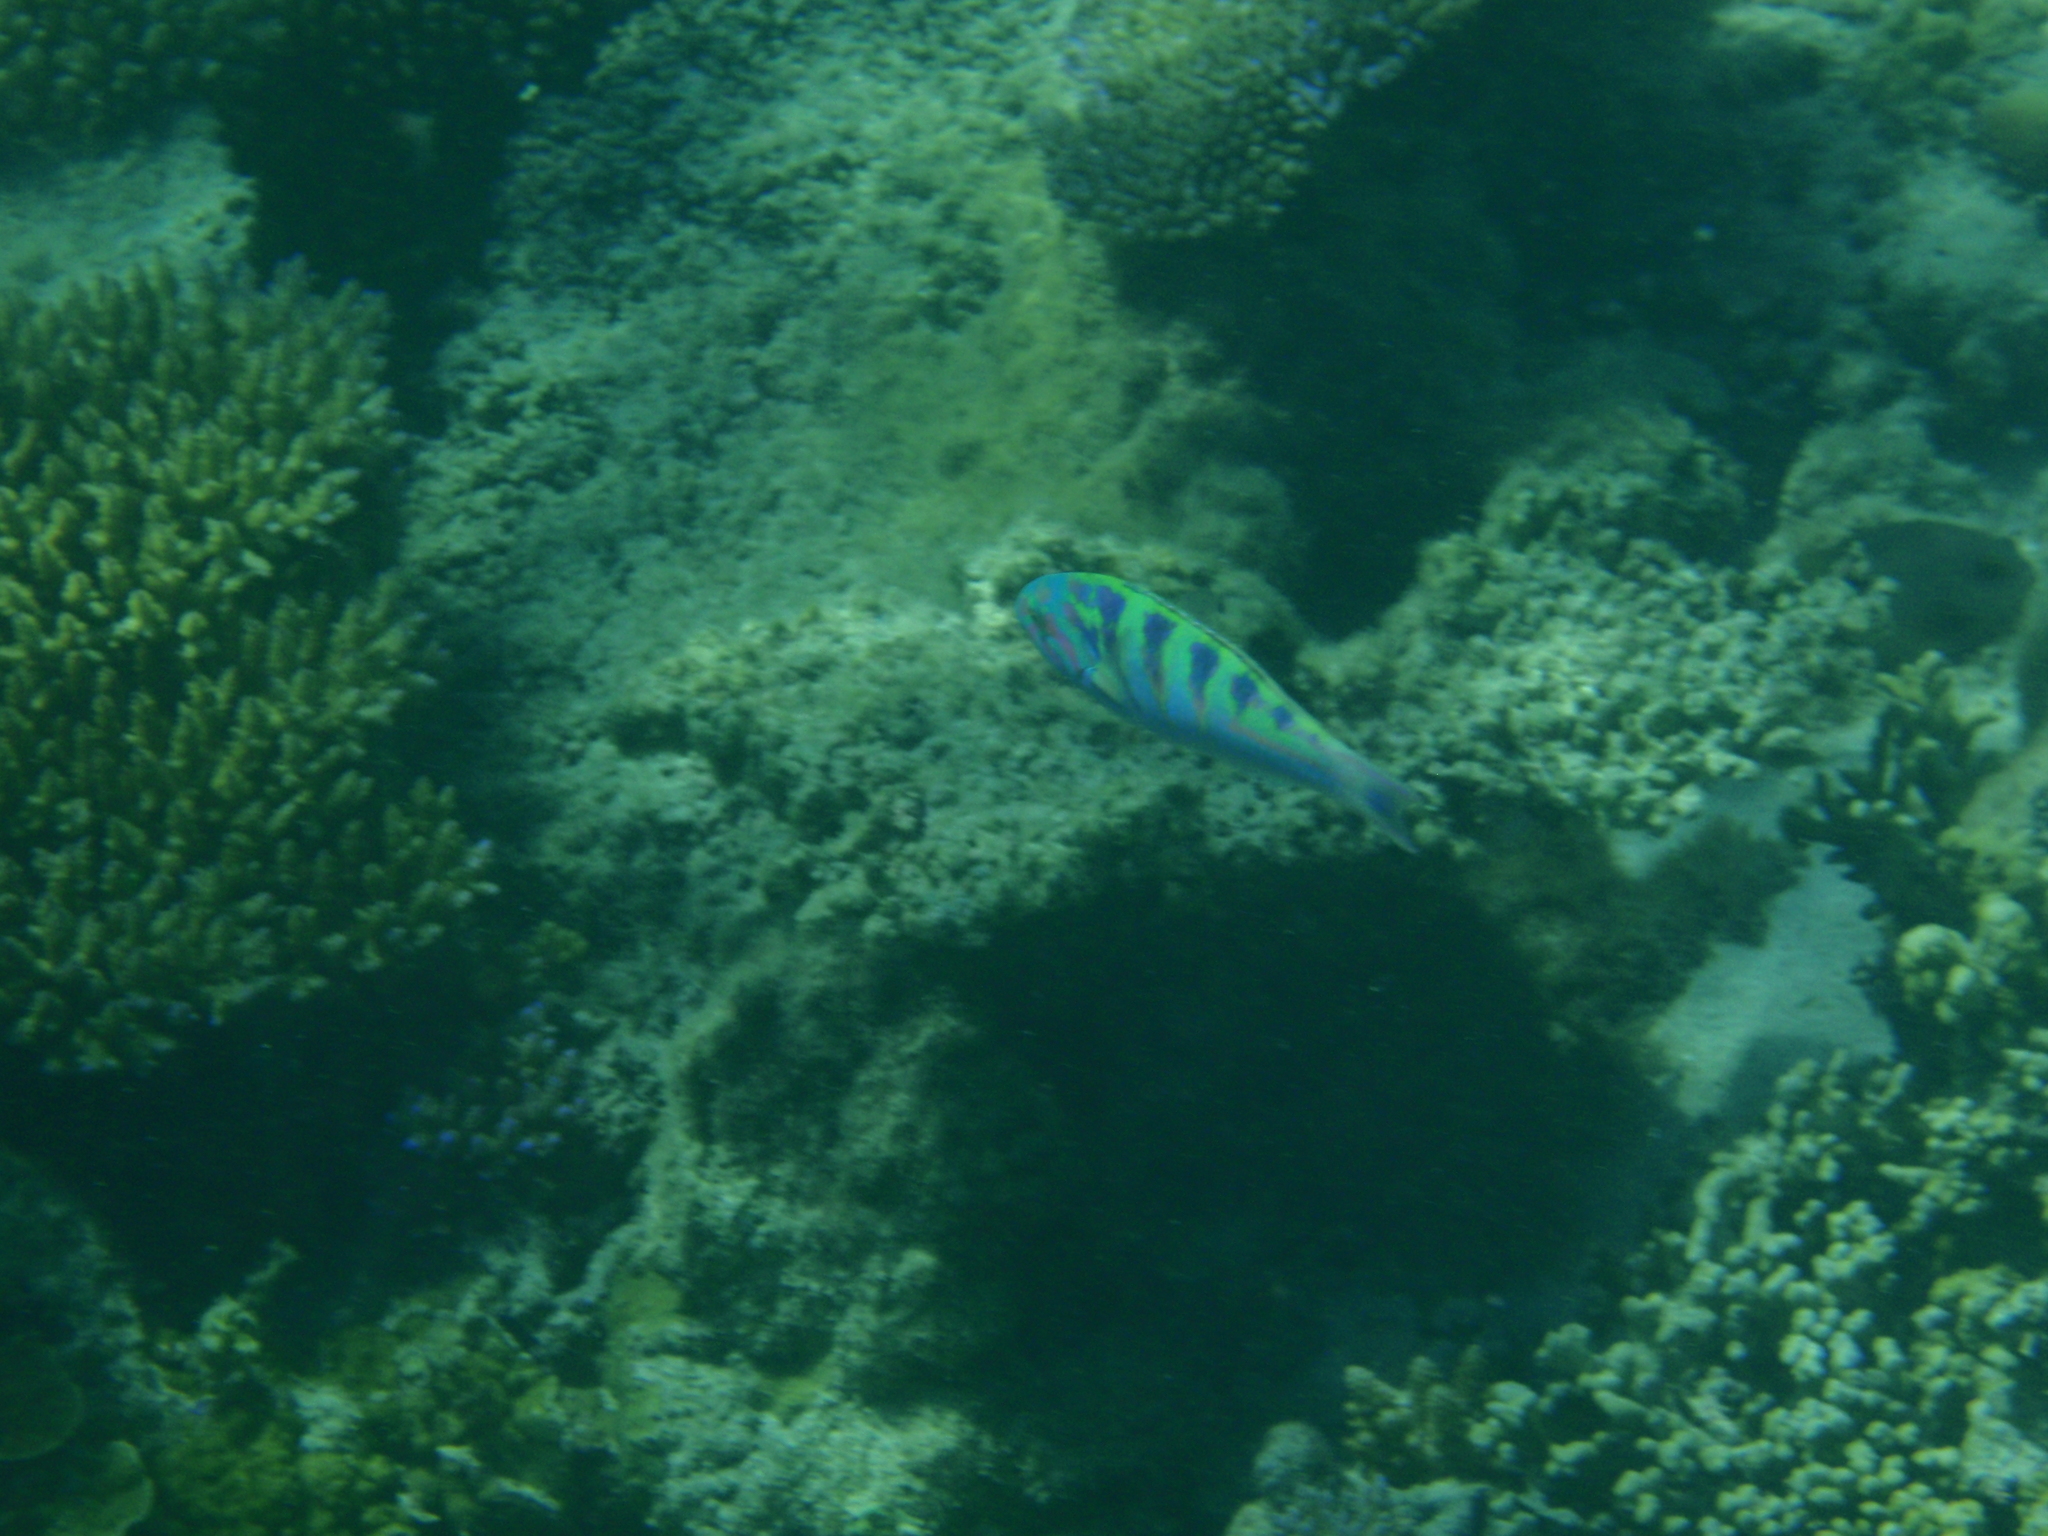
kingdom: Animalia
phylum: Chordata
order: Perciformes
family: Labridae
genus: Thalassoma
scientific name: Thalassoma hardwicke
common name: Sixbar wrasse
